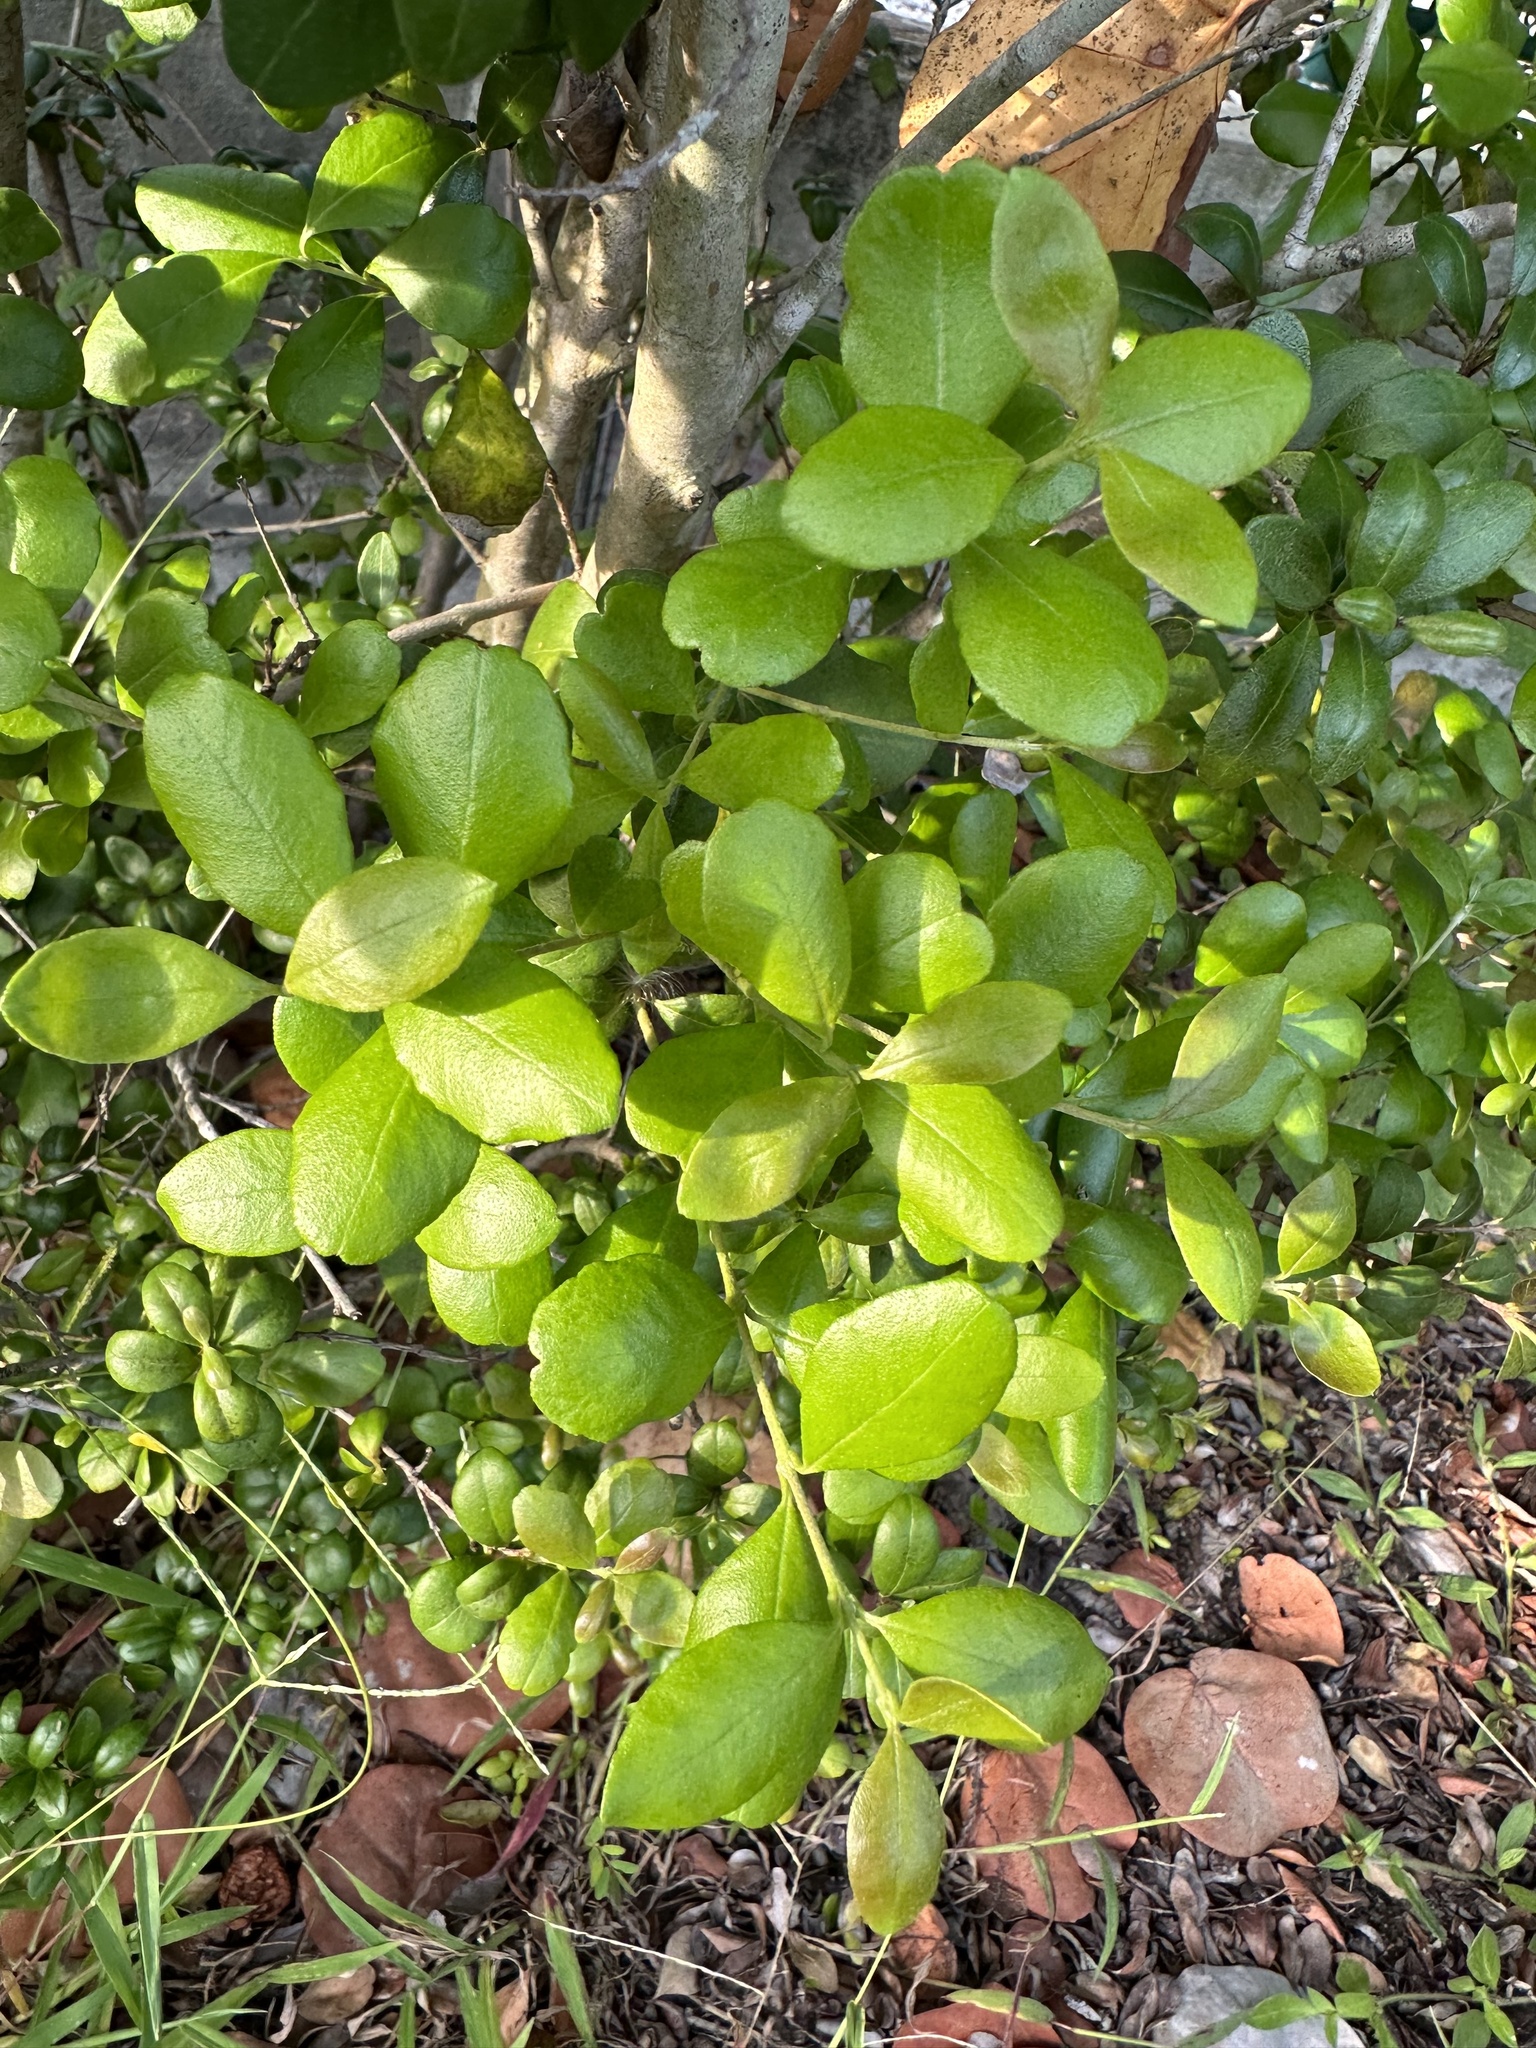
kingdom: Plantae
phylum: Tracheophyta
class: Magnoliopsida
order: Myrtales
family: Myrtaceae
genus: Myrcianthes
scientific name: Myrcianthes fragrans
